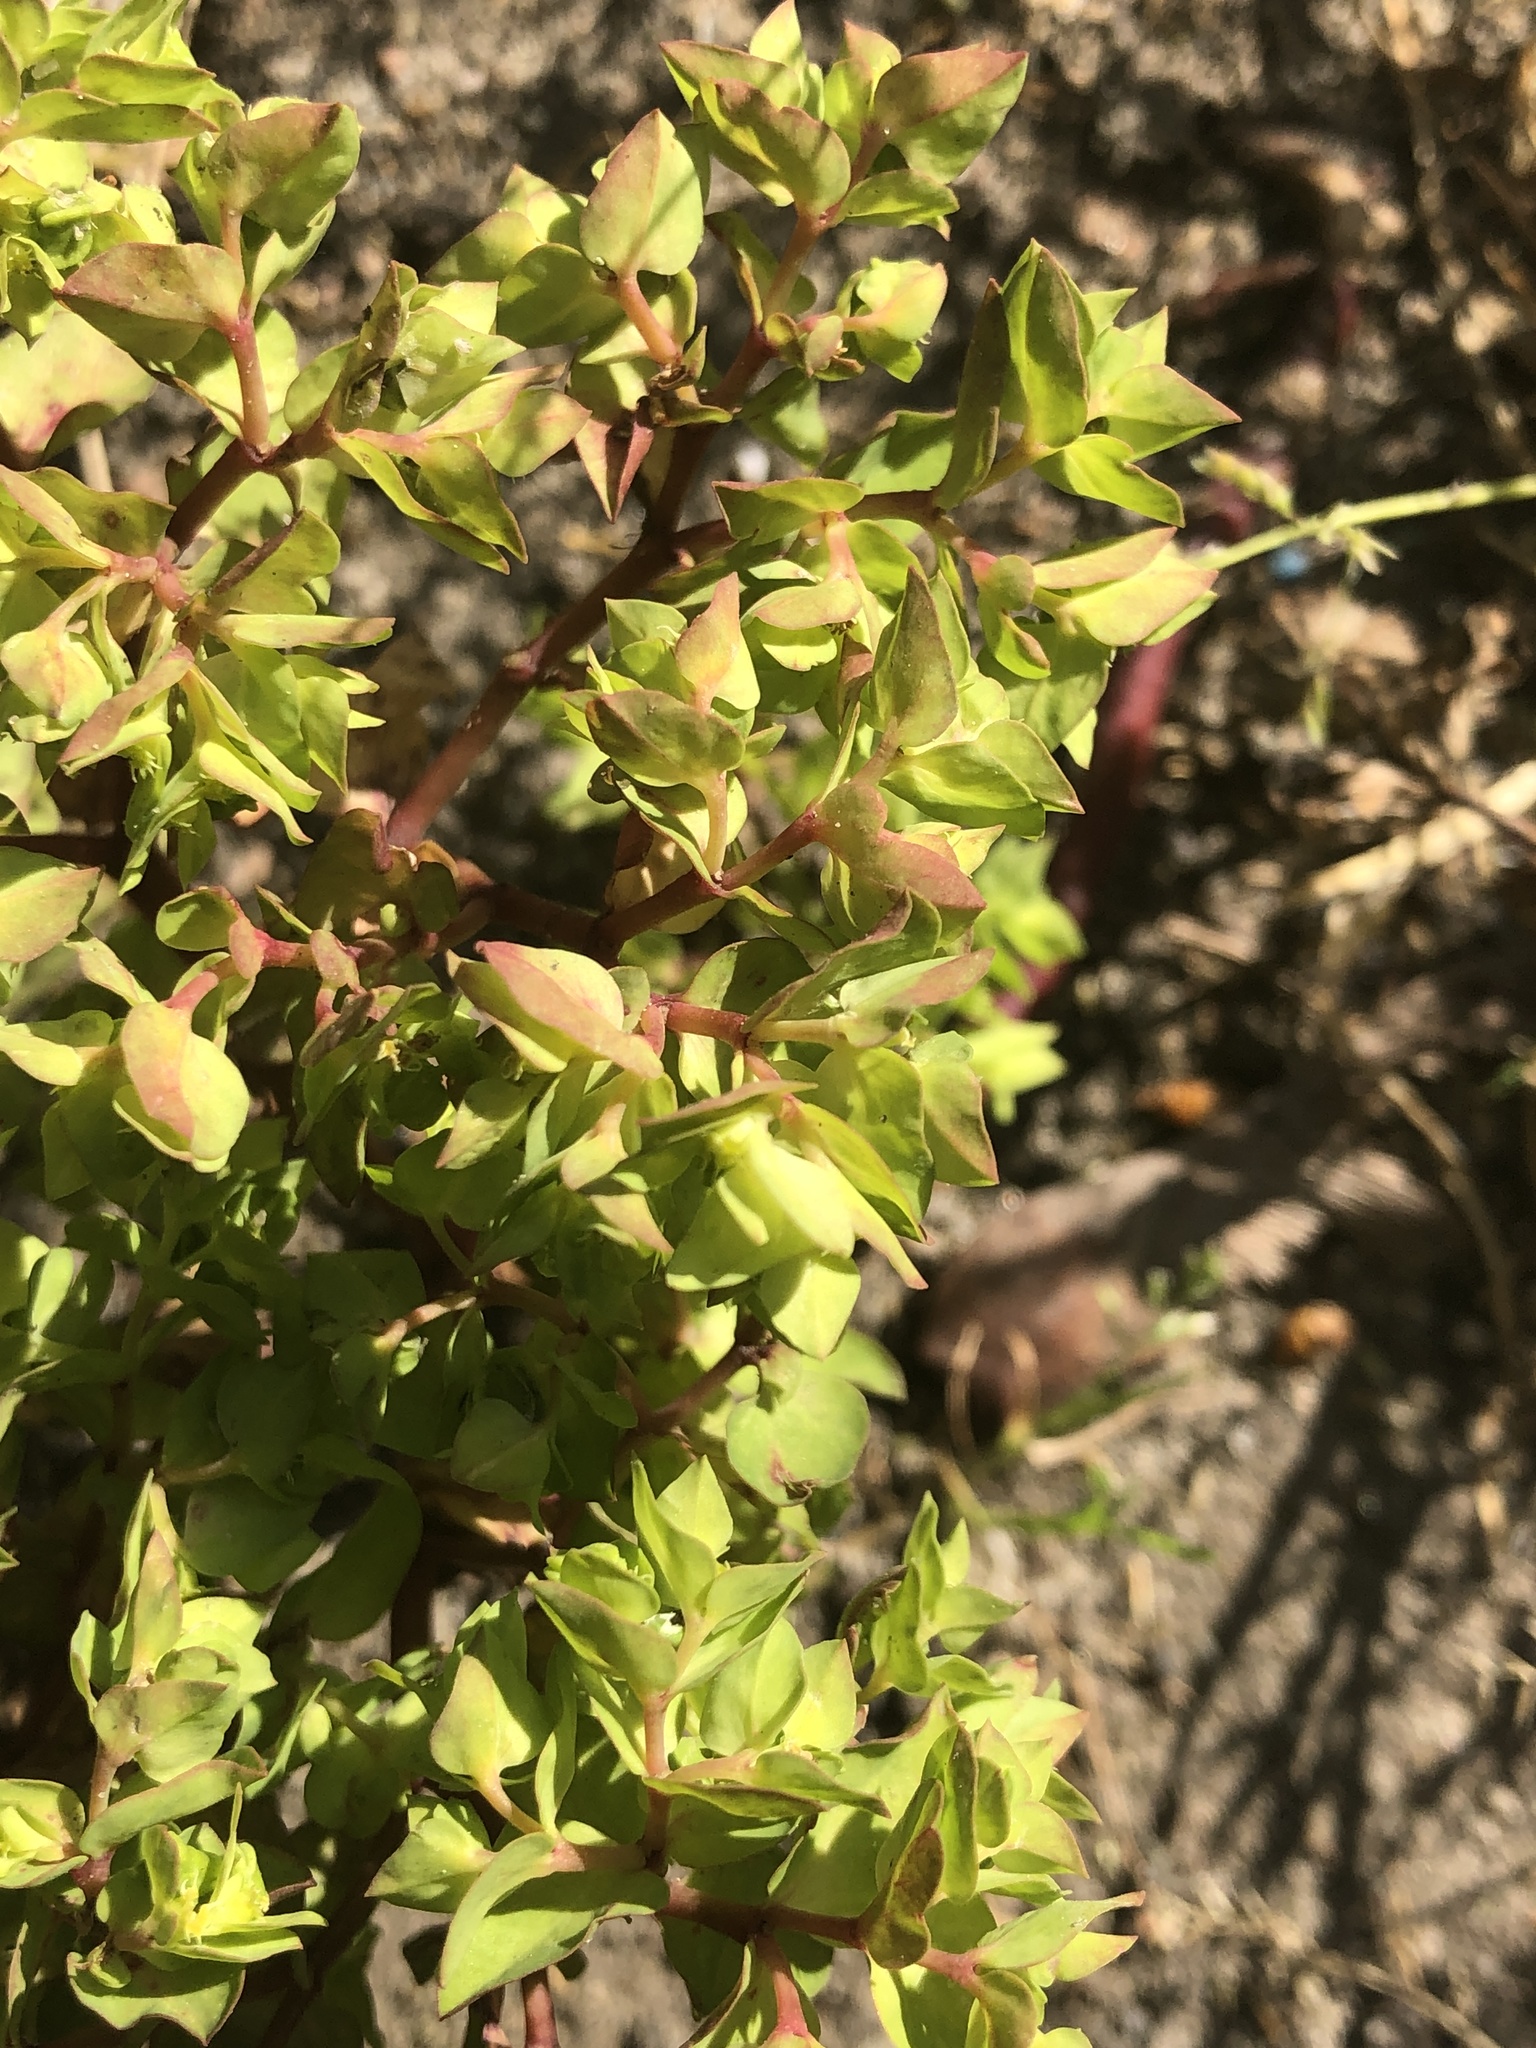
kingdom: Plantae
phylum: Tracheophyta
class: Magnoliopsida
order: Malpighiales
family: Euphorbiaceae
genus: Euphorbia
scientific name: Euphorbia peplus
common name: Petty spurge
